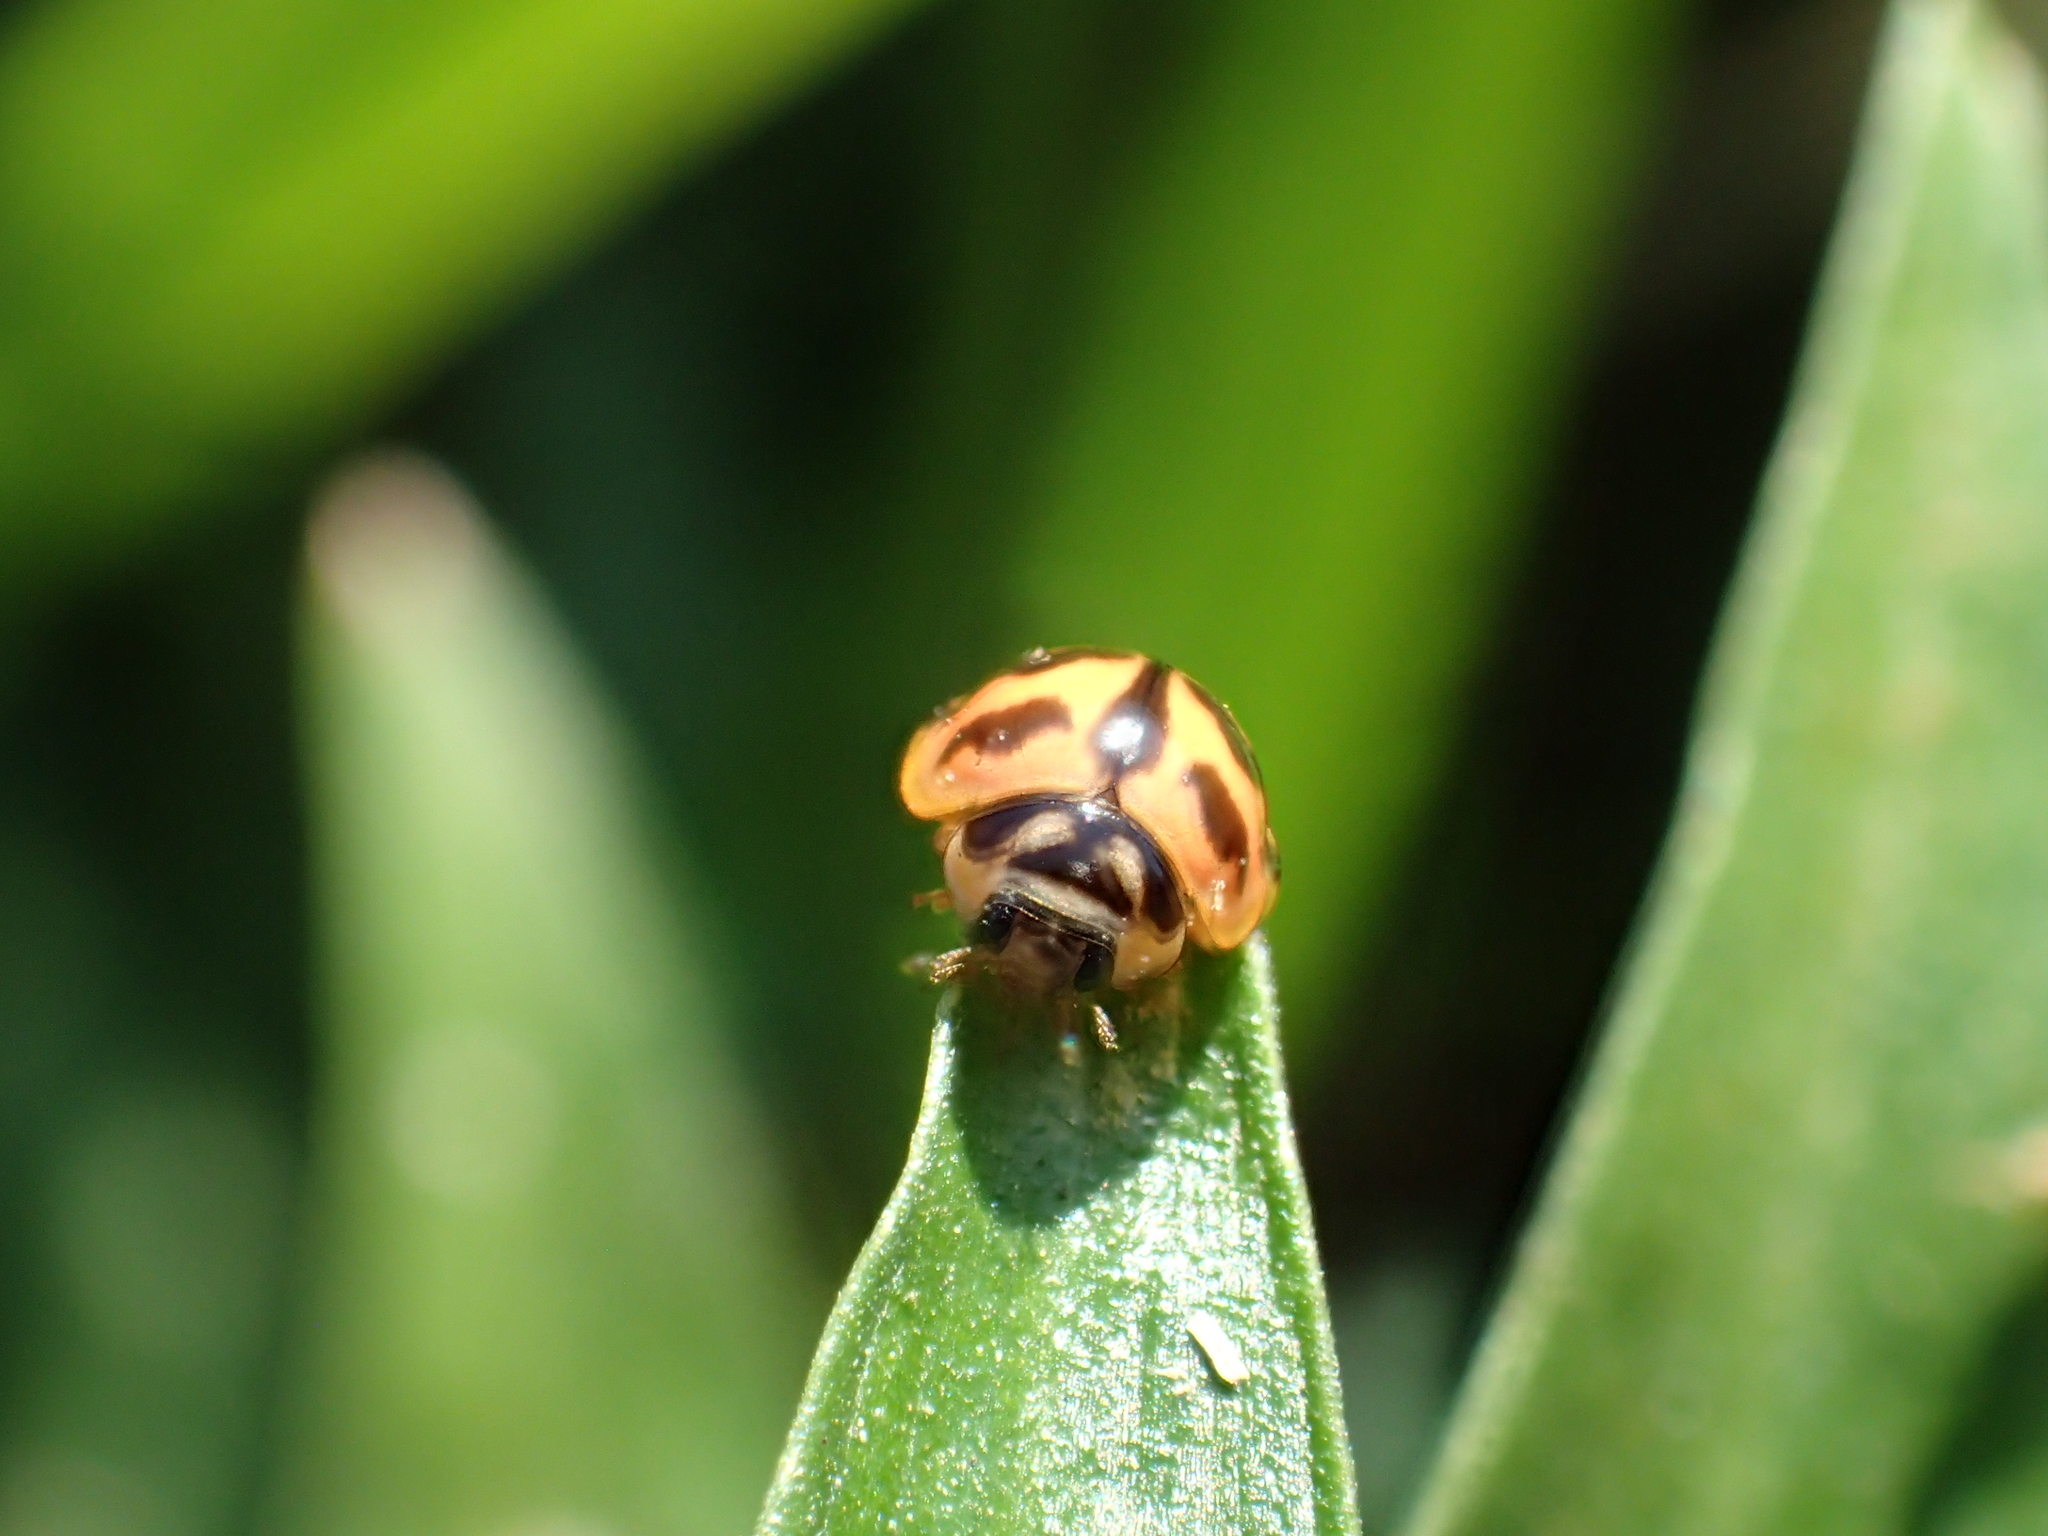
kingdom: Animalia
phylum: Arthropoda
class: Insecta
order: Coleoptera
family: Coccinellidae
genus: Cheilomenes
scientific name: Cheilomenes sexmaculata
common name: Ladybird beetle
